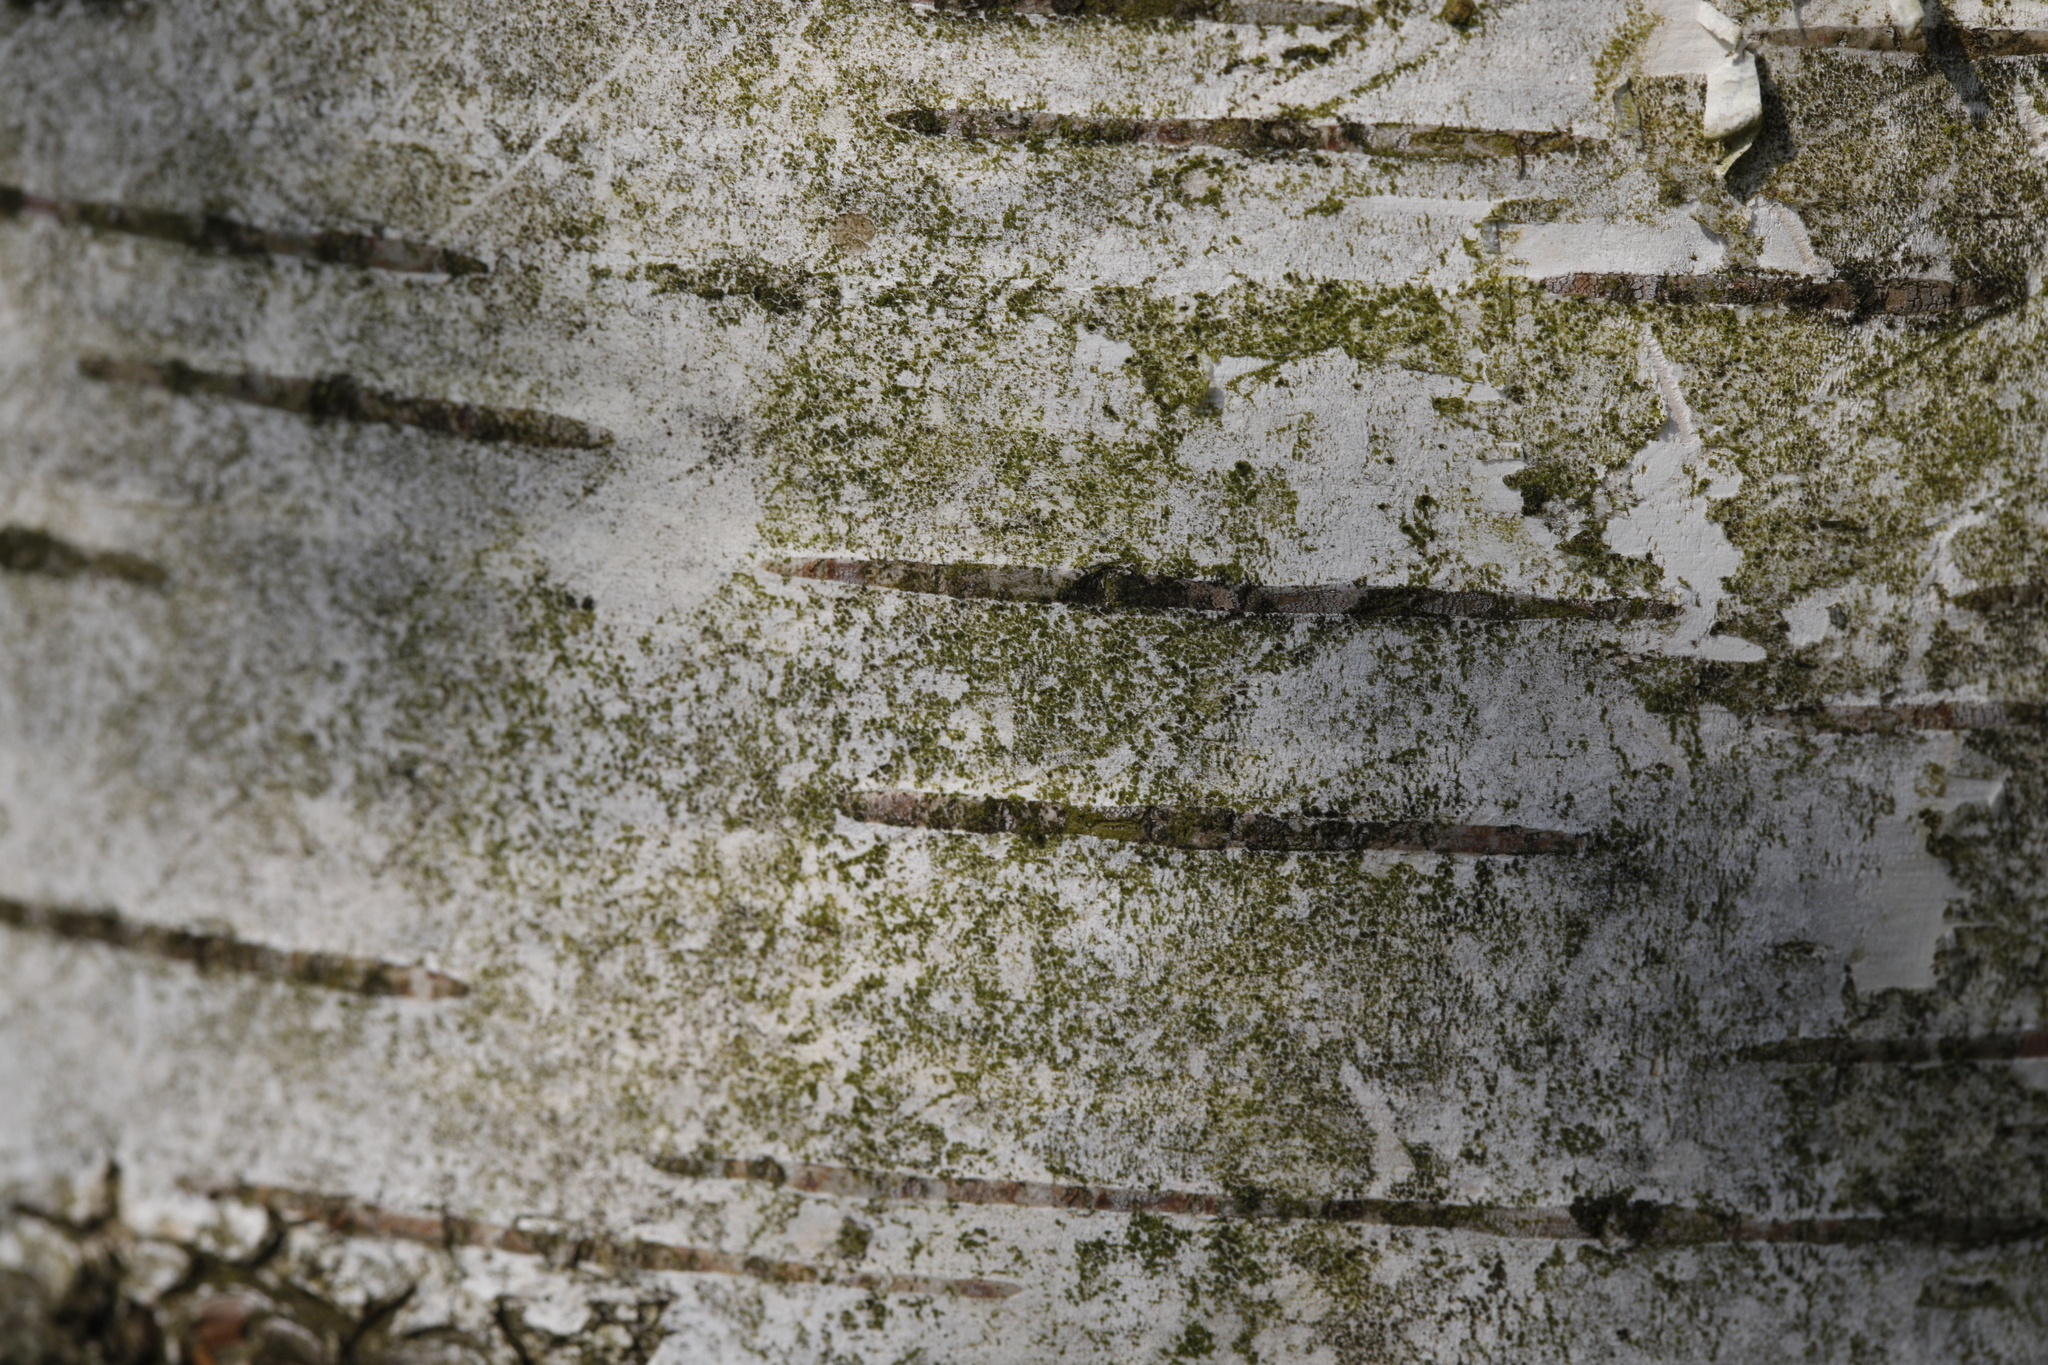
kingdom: Plantae
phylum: Tracheophyta
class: Magnoliopsida
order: Fagales
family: Betulaceae
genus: Betula
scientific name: Betula pendula
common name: Silver birch
